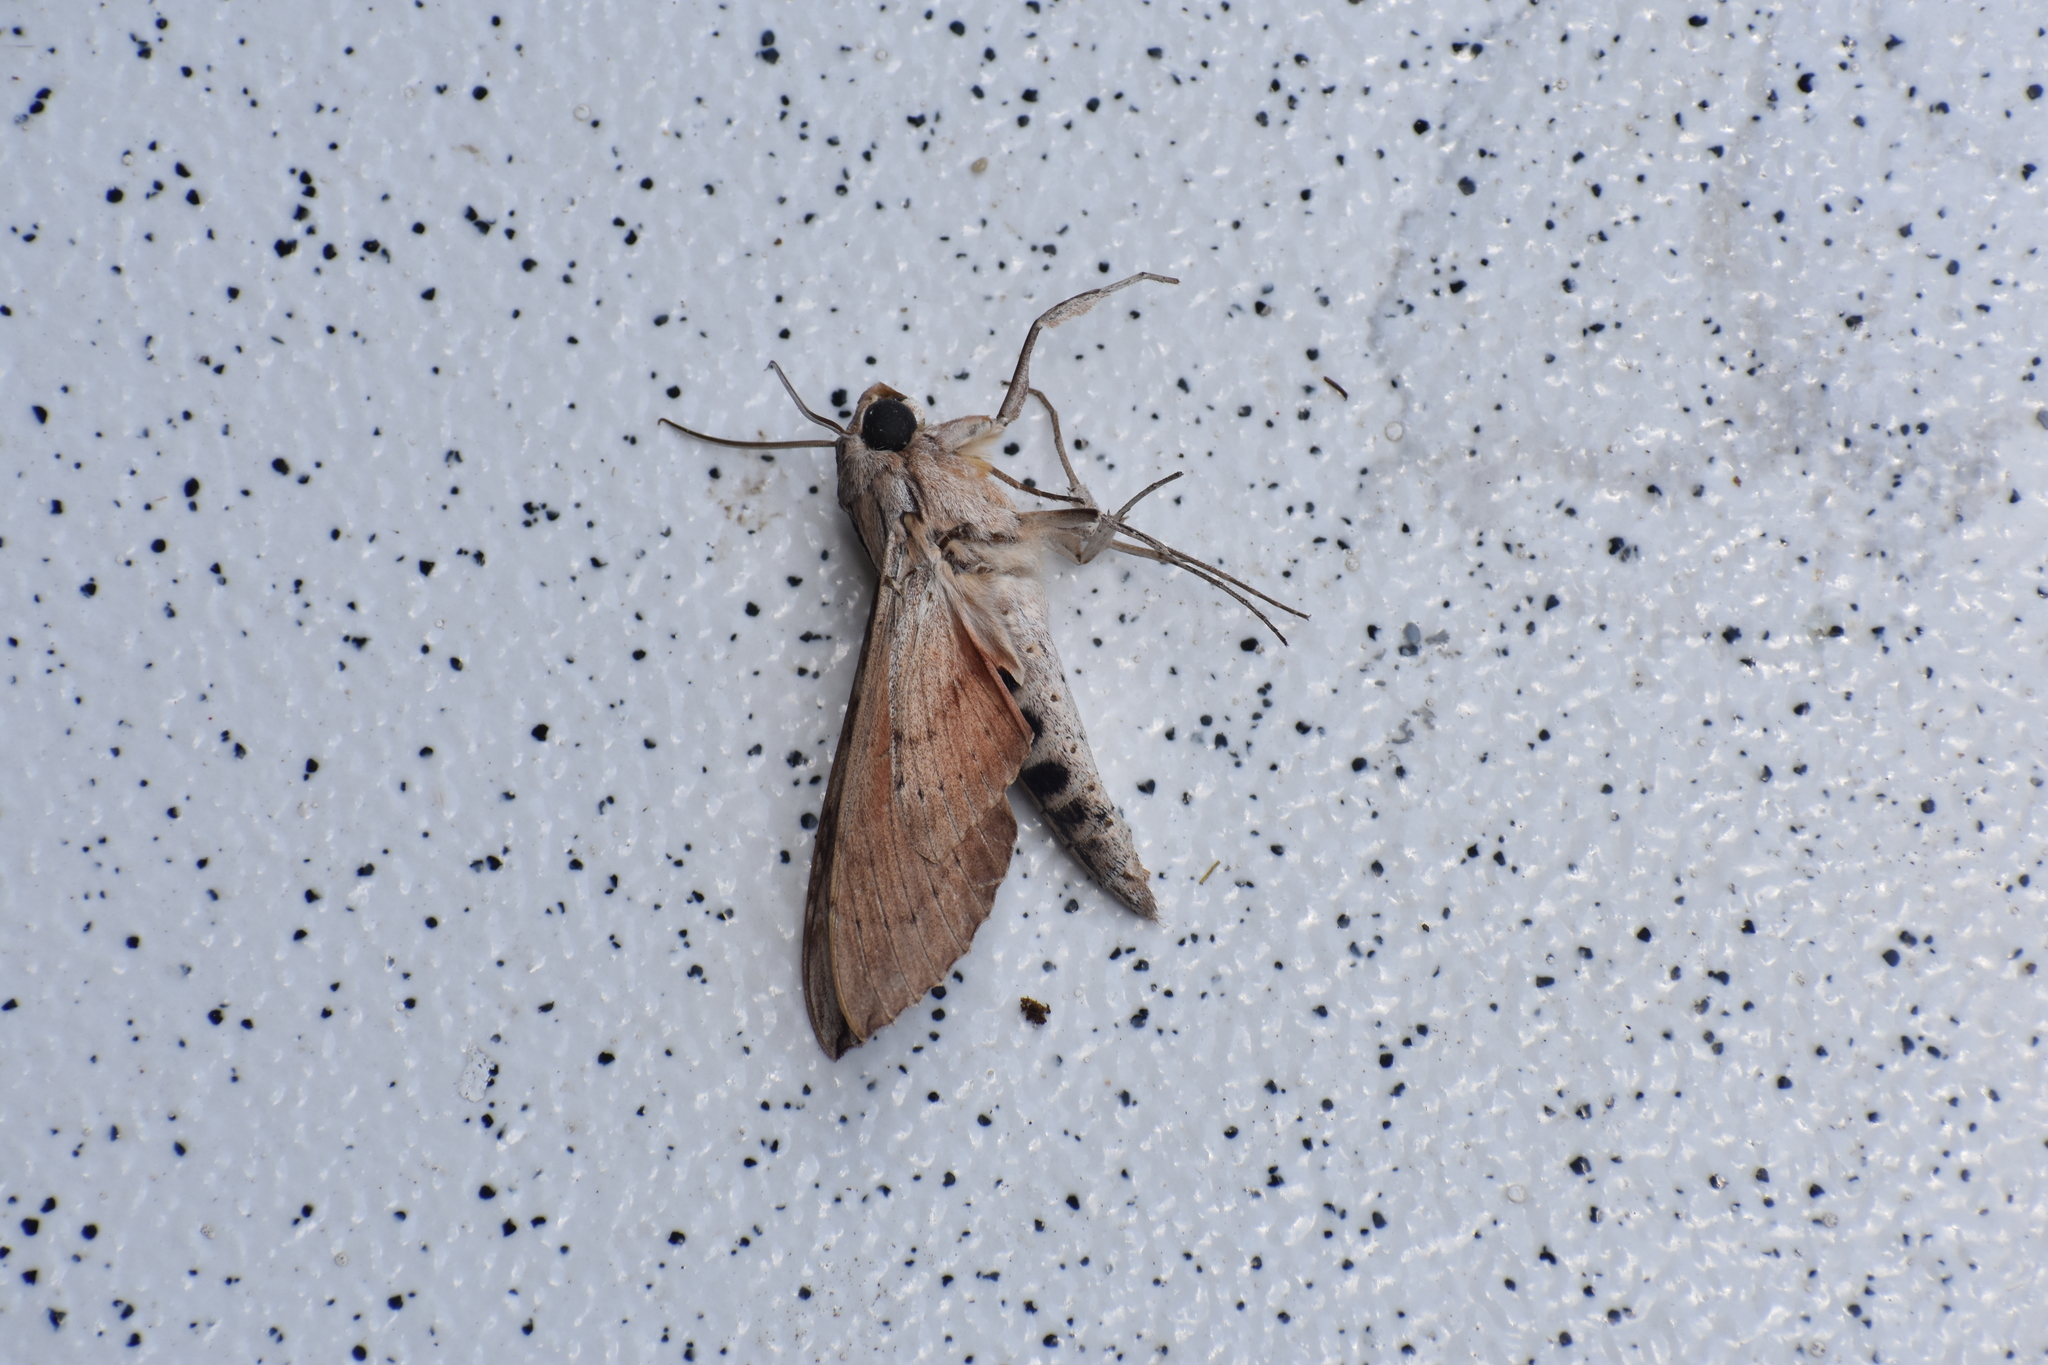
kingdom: Animalia
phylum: Arthropoda
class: Insecta
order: Lepidoptera
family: Sphingidae
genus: Erinnyis
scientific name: Erinnyis ello
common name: Ello sphinx
